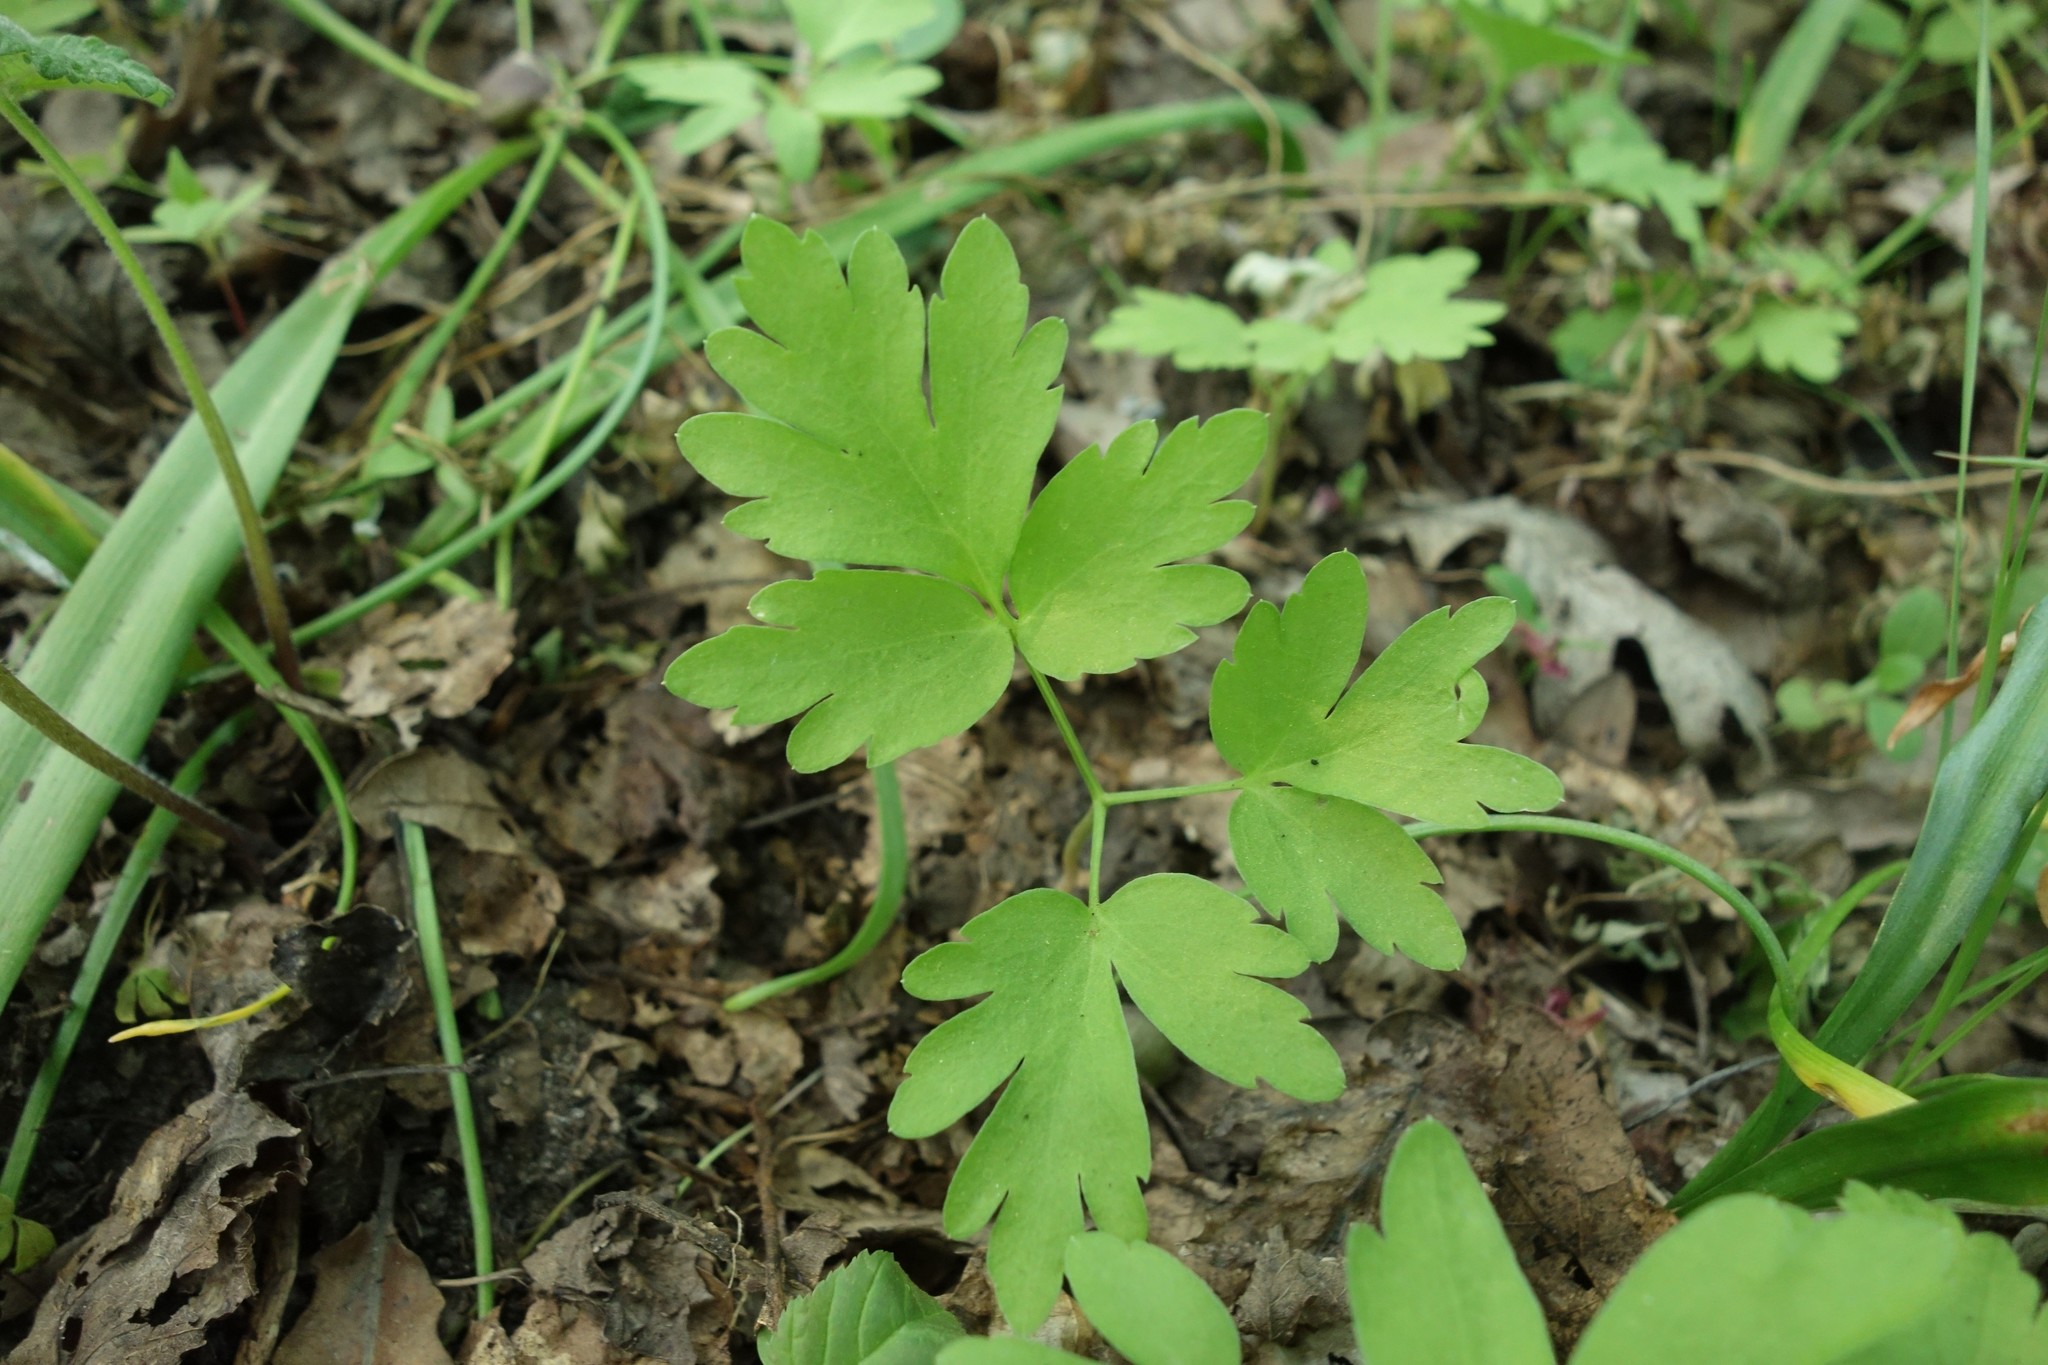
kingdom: Plantae
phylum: Tracheophyta
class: Magnoliopsida
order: Dipsacales
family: Viburnaceae
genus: Adoxa
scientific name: Adoxa moschatellina
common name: Moschatel
